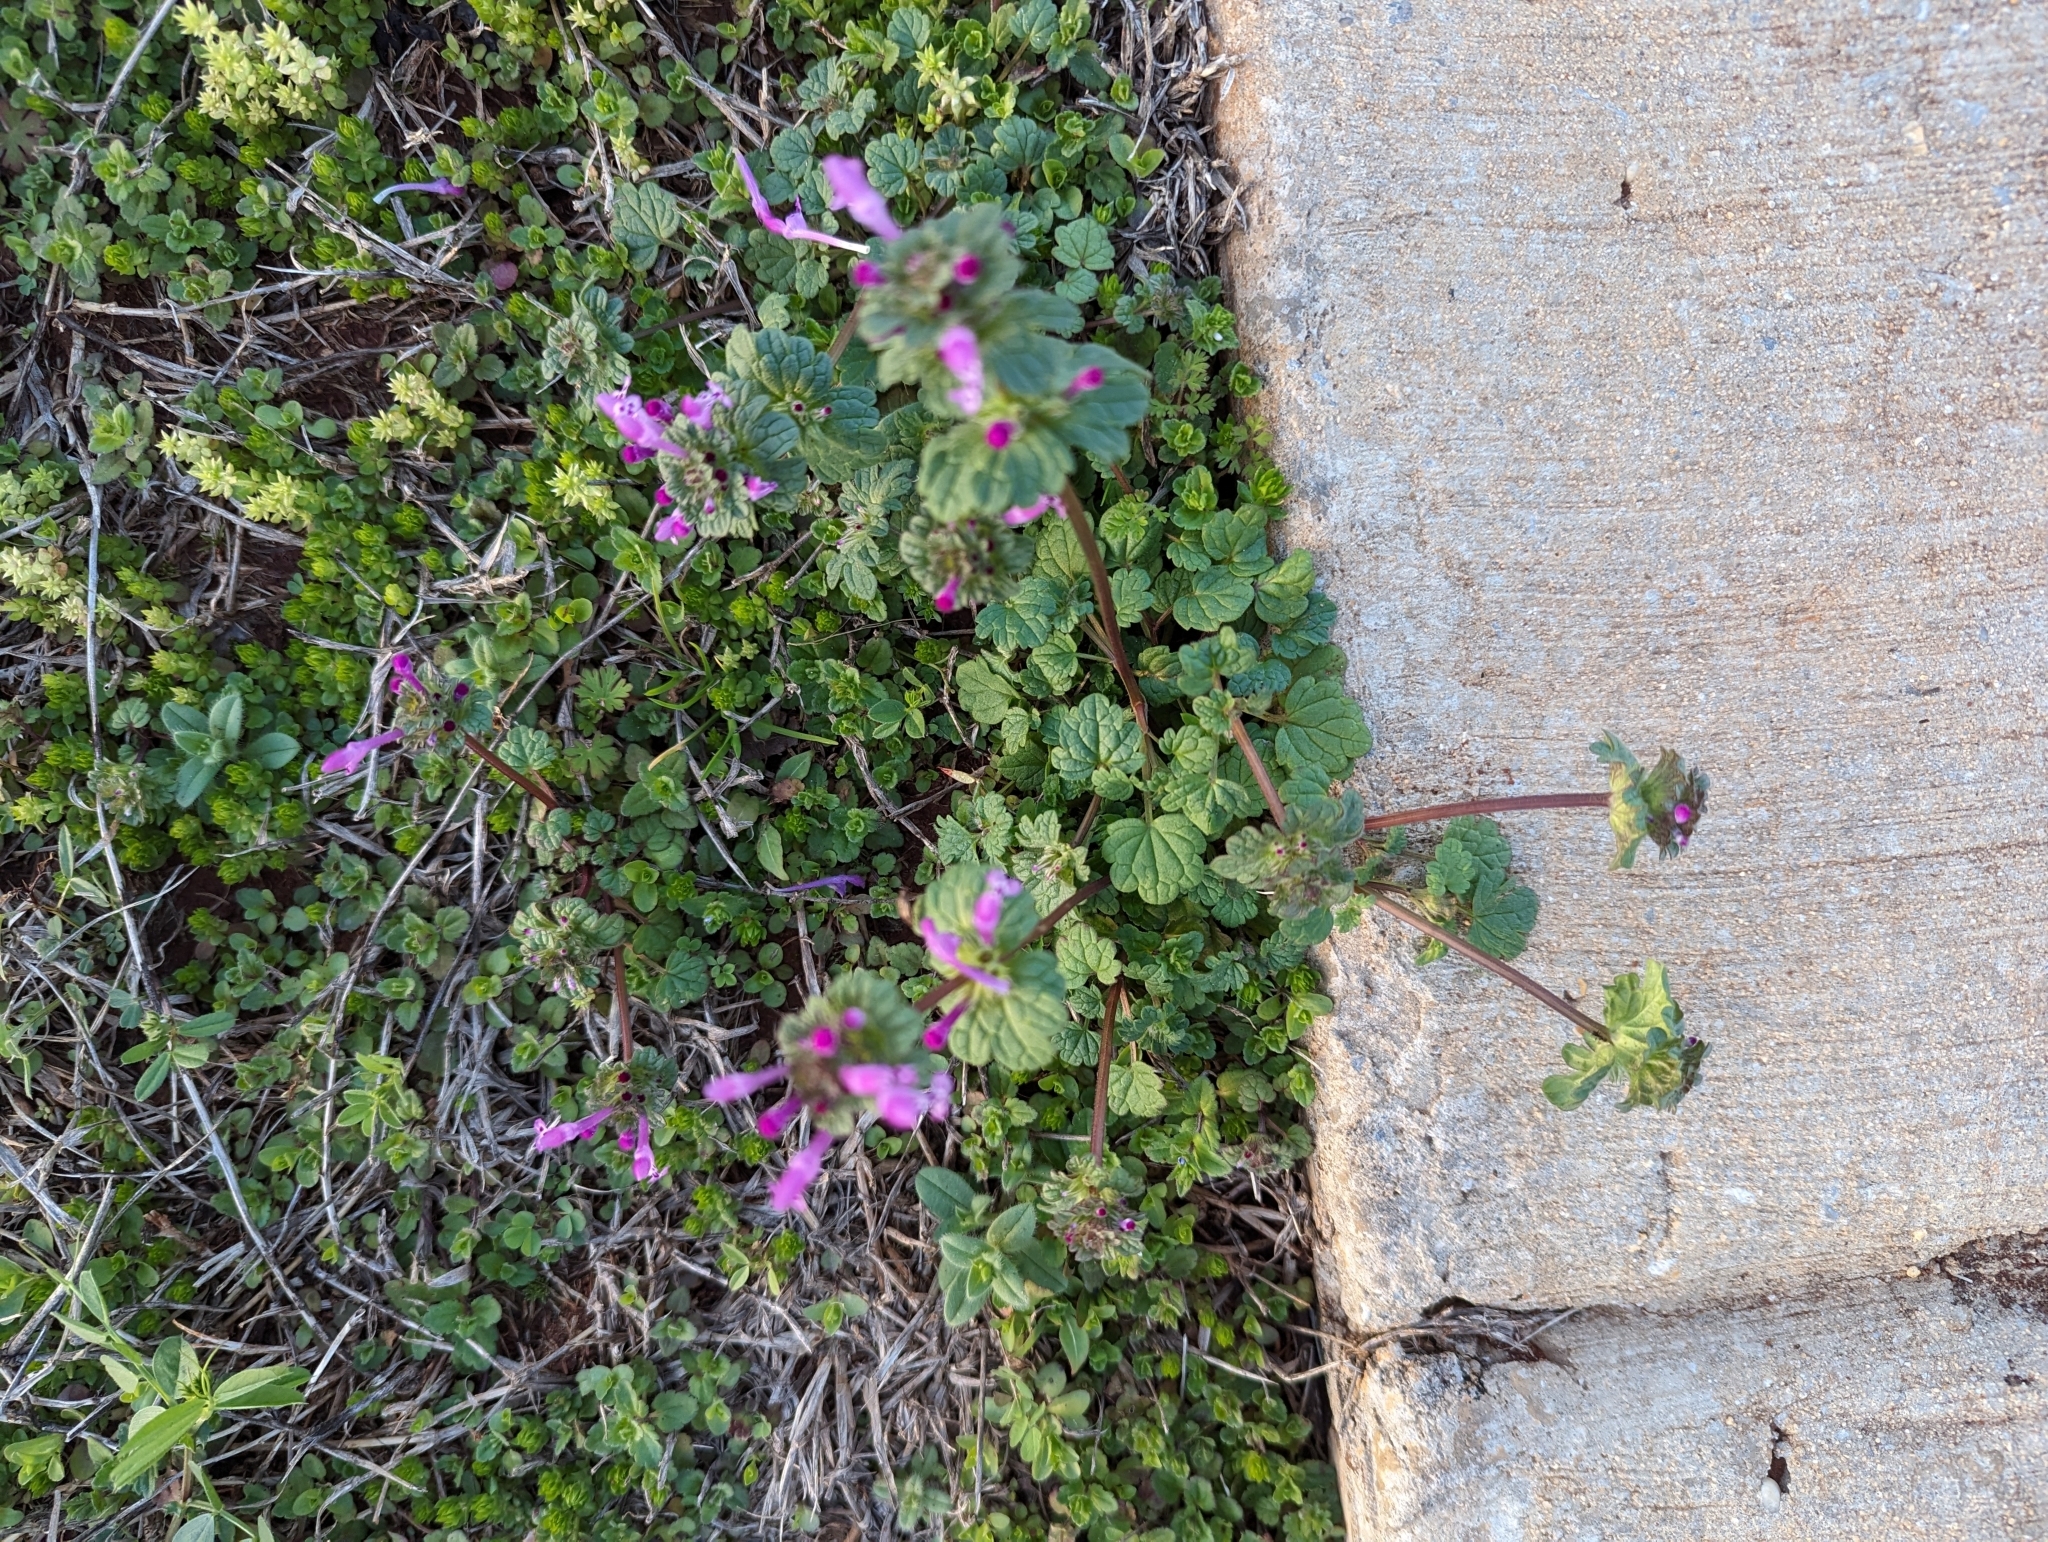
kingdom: Plantae
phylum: Tracheophyta
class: Magnoliopsida
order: Lamiales
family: Lamiaceae
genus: Lamium
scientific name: Lamium amplexicaule
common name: Henbit dead-nettle
